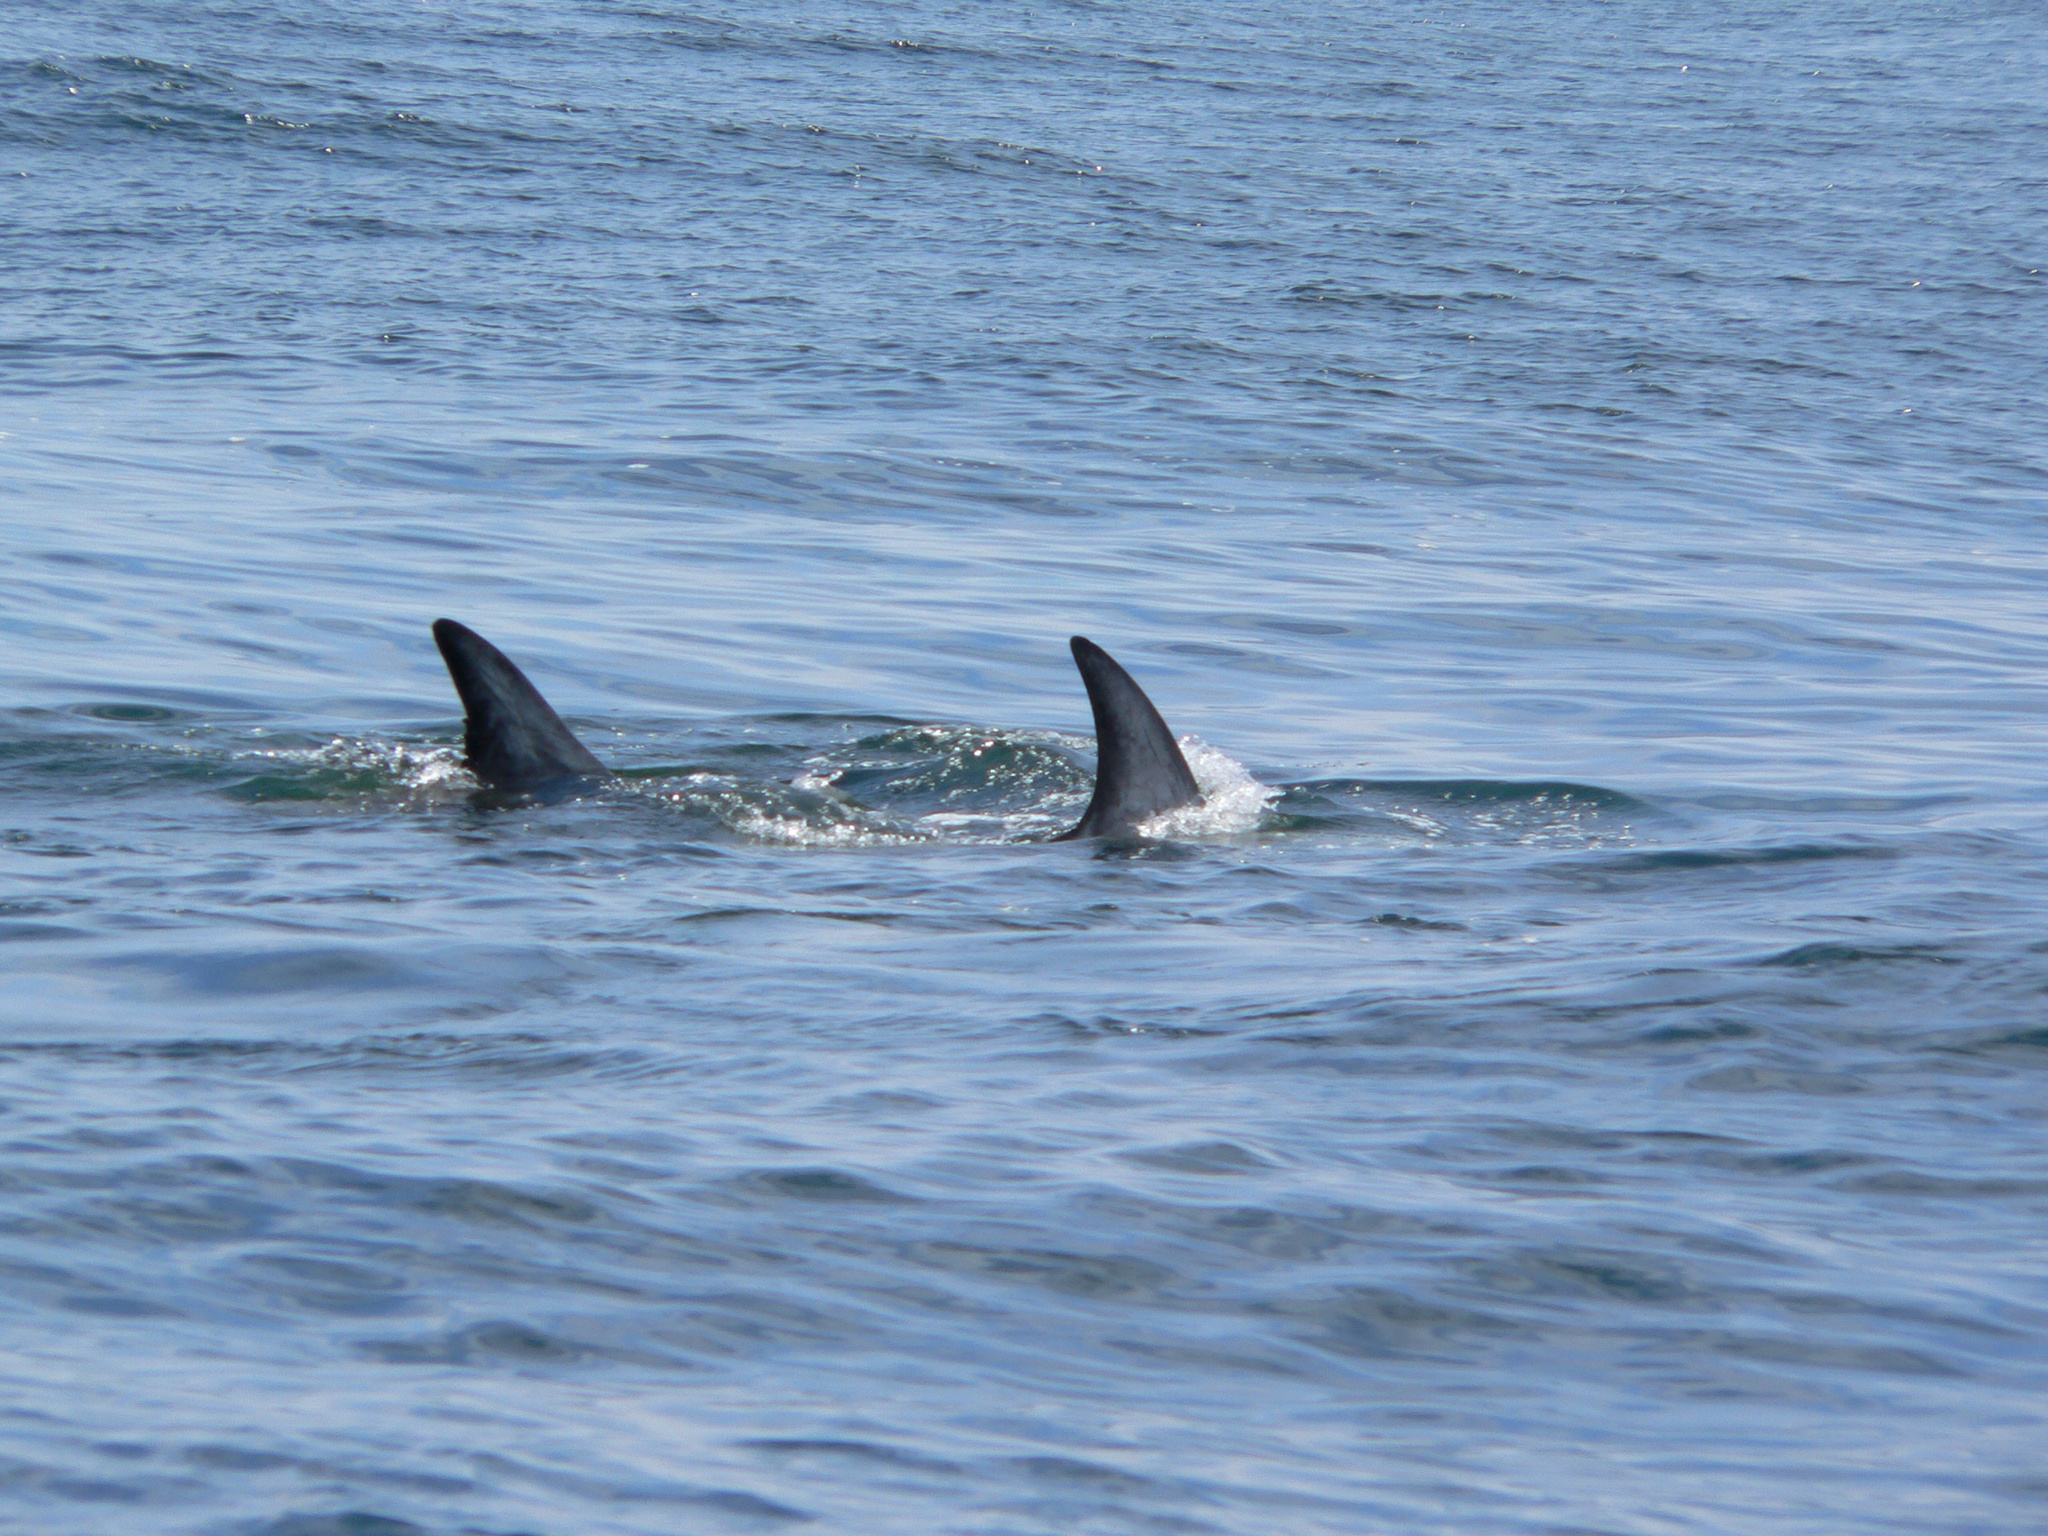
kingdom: Animalia
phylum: Chordata
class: Mammalia
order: Cetacea
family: Delphinidae
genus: Grampus
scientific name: Grampus griseus
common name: Risso's dolphin
